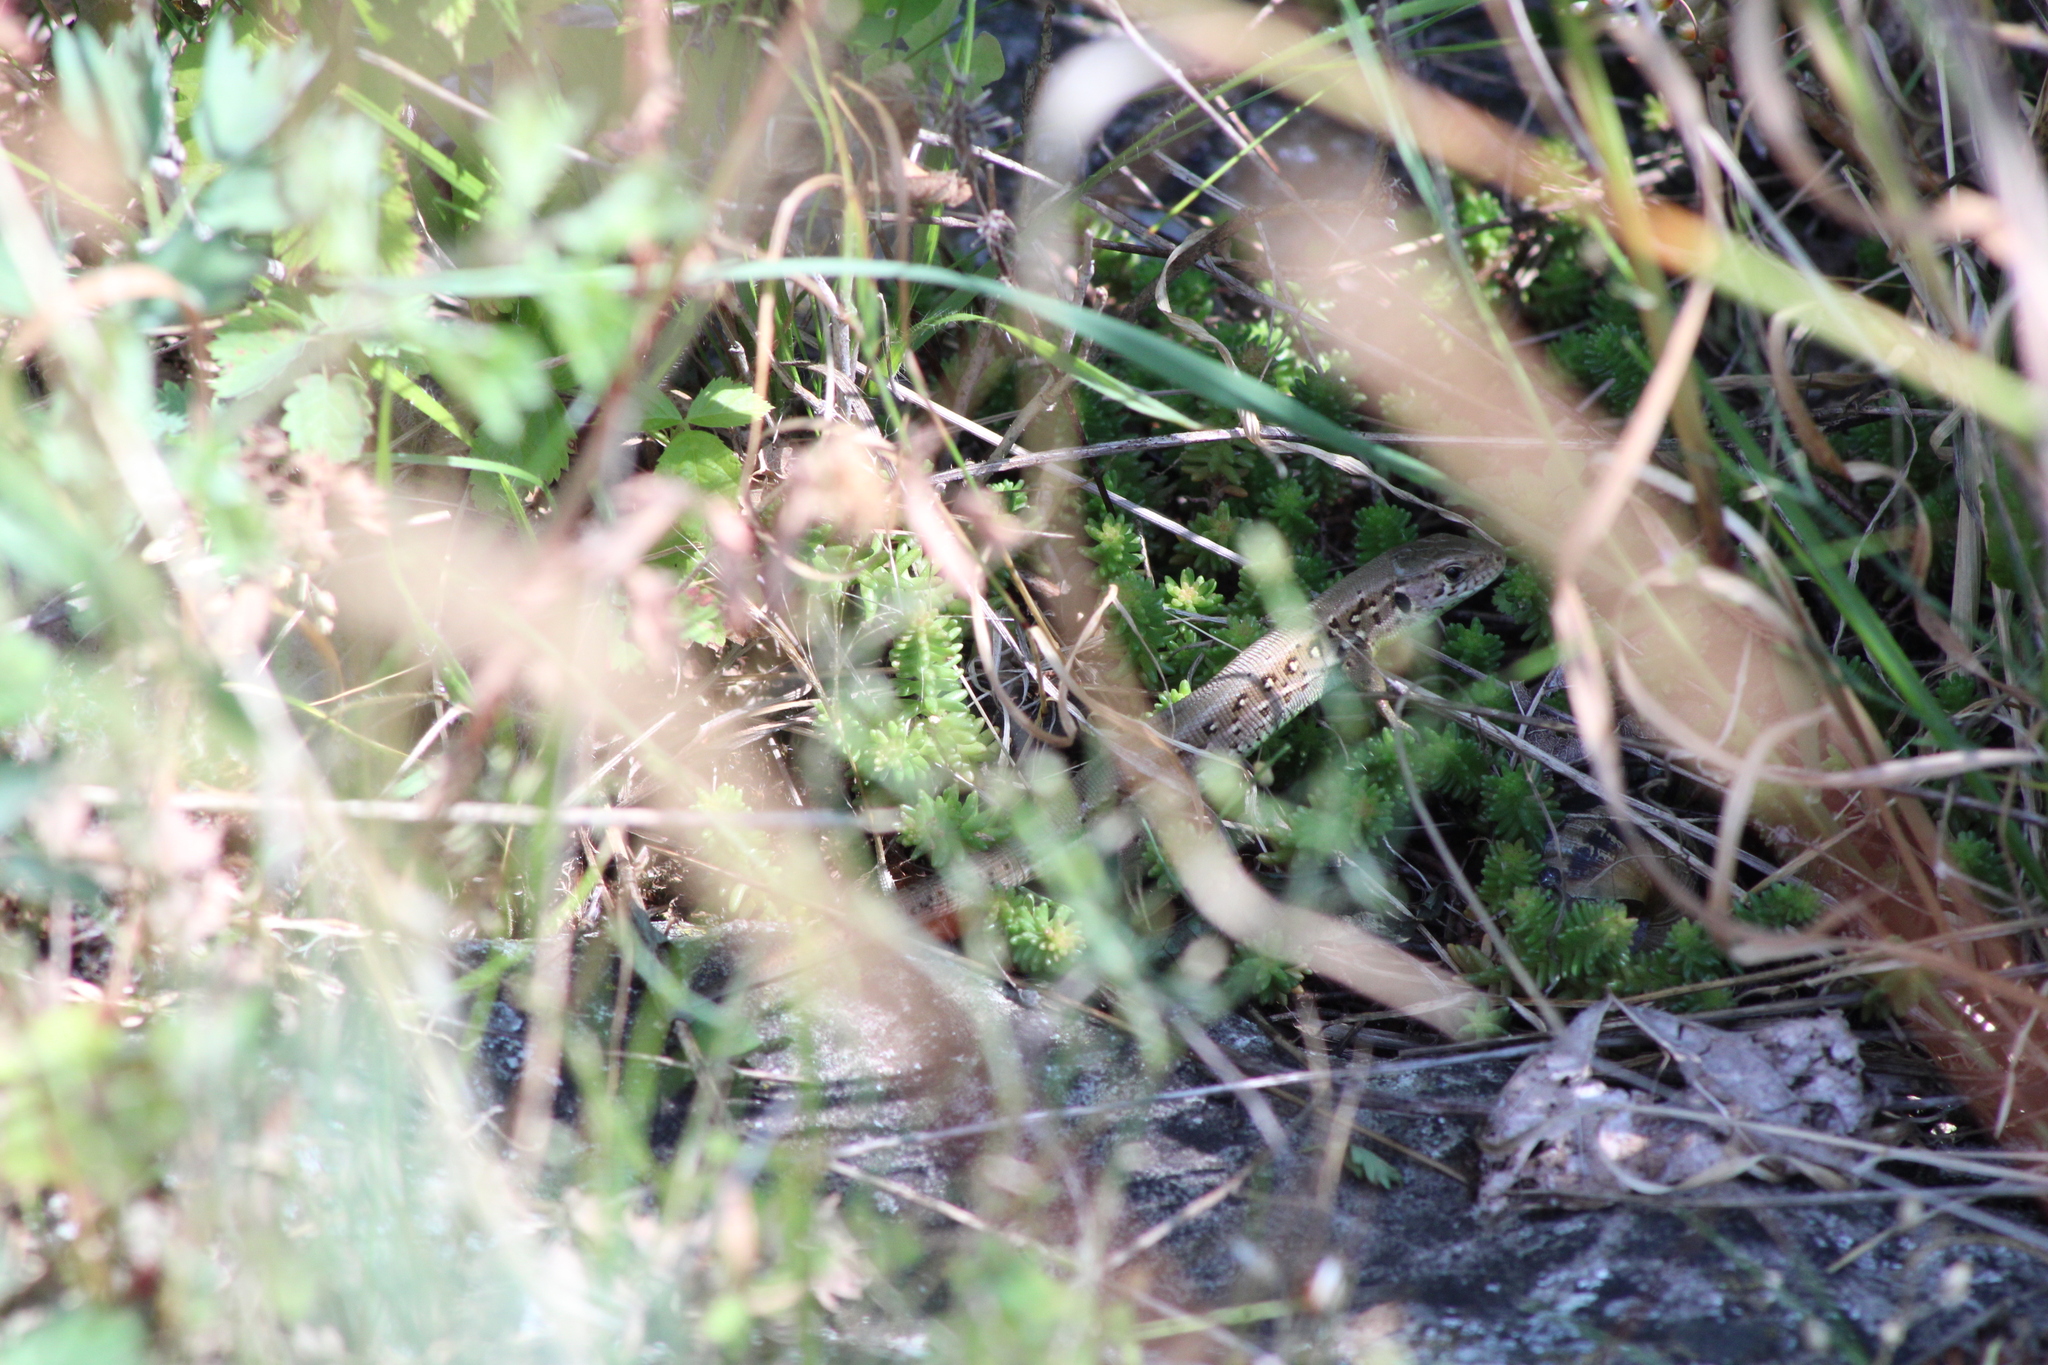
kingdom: Animalia
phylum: Chordata
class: Squamata
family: Lacertidae
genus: Lacerta
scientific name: Lacerta agilis
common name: Sand lizard
